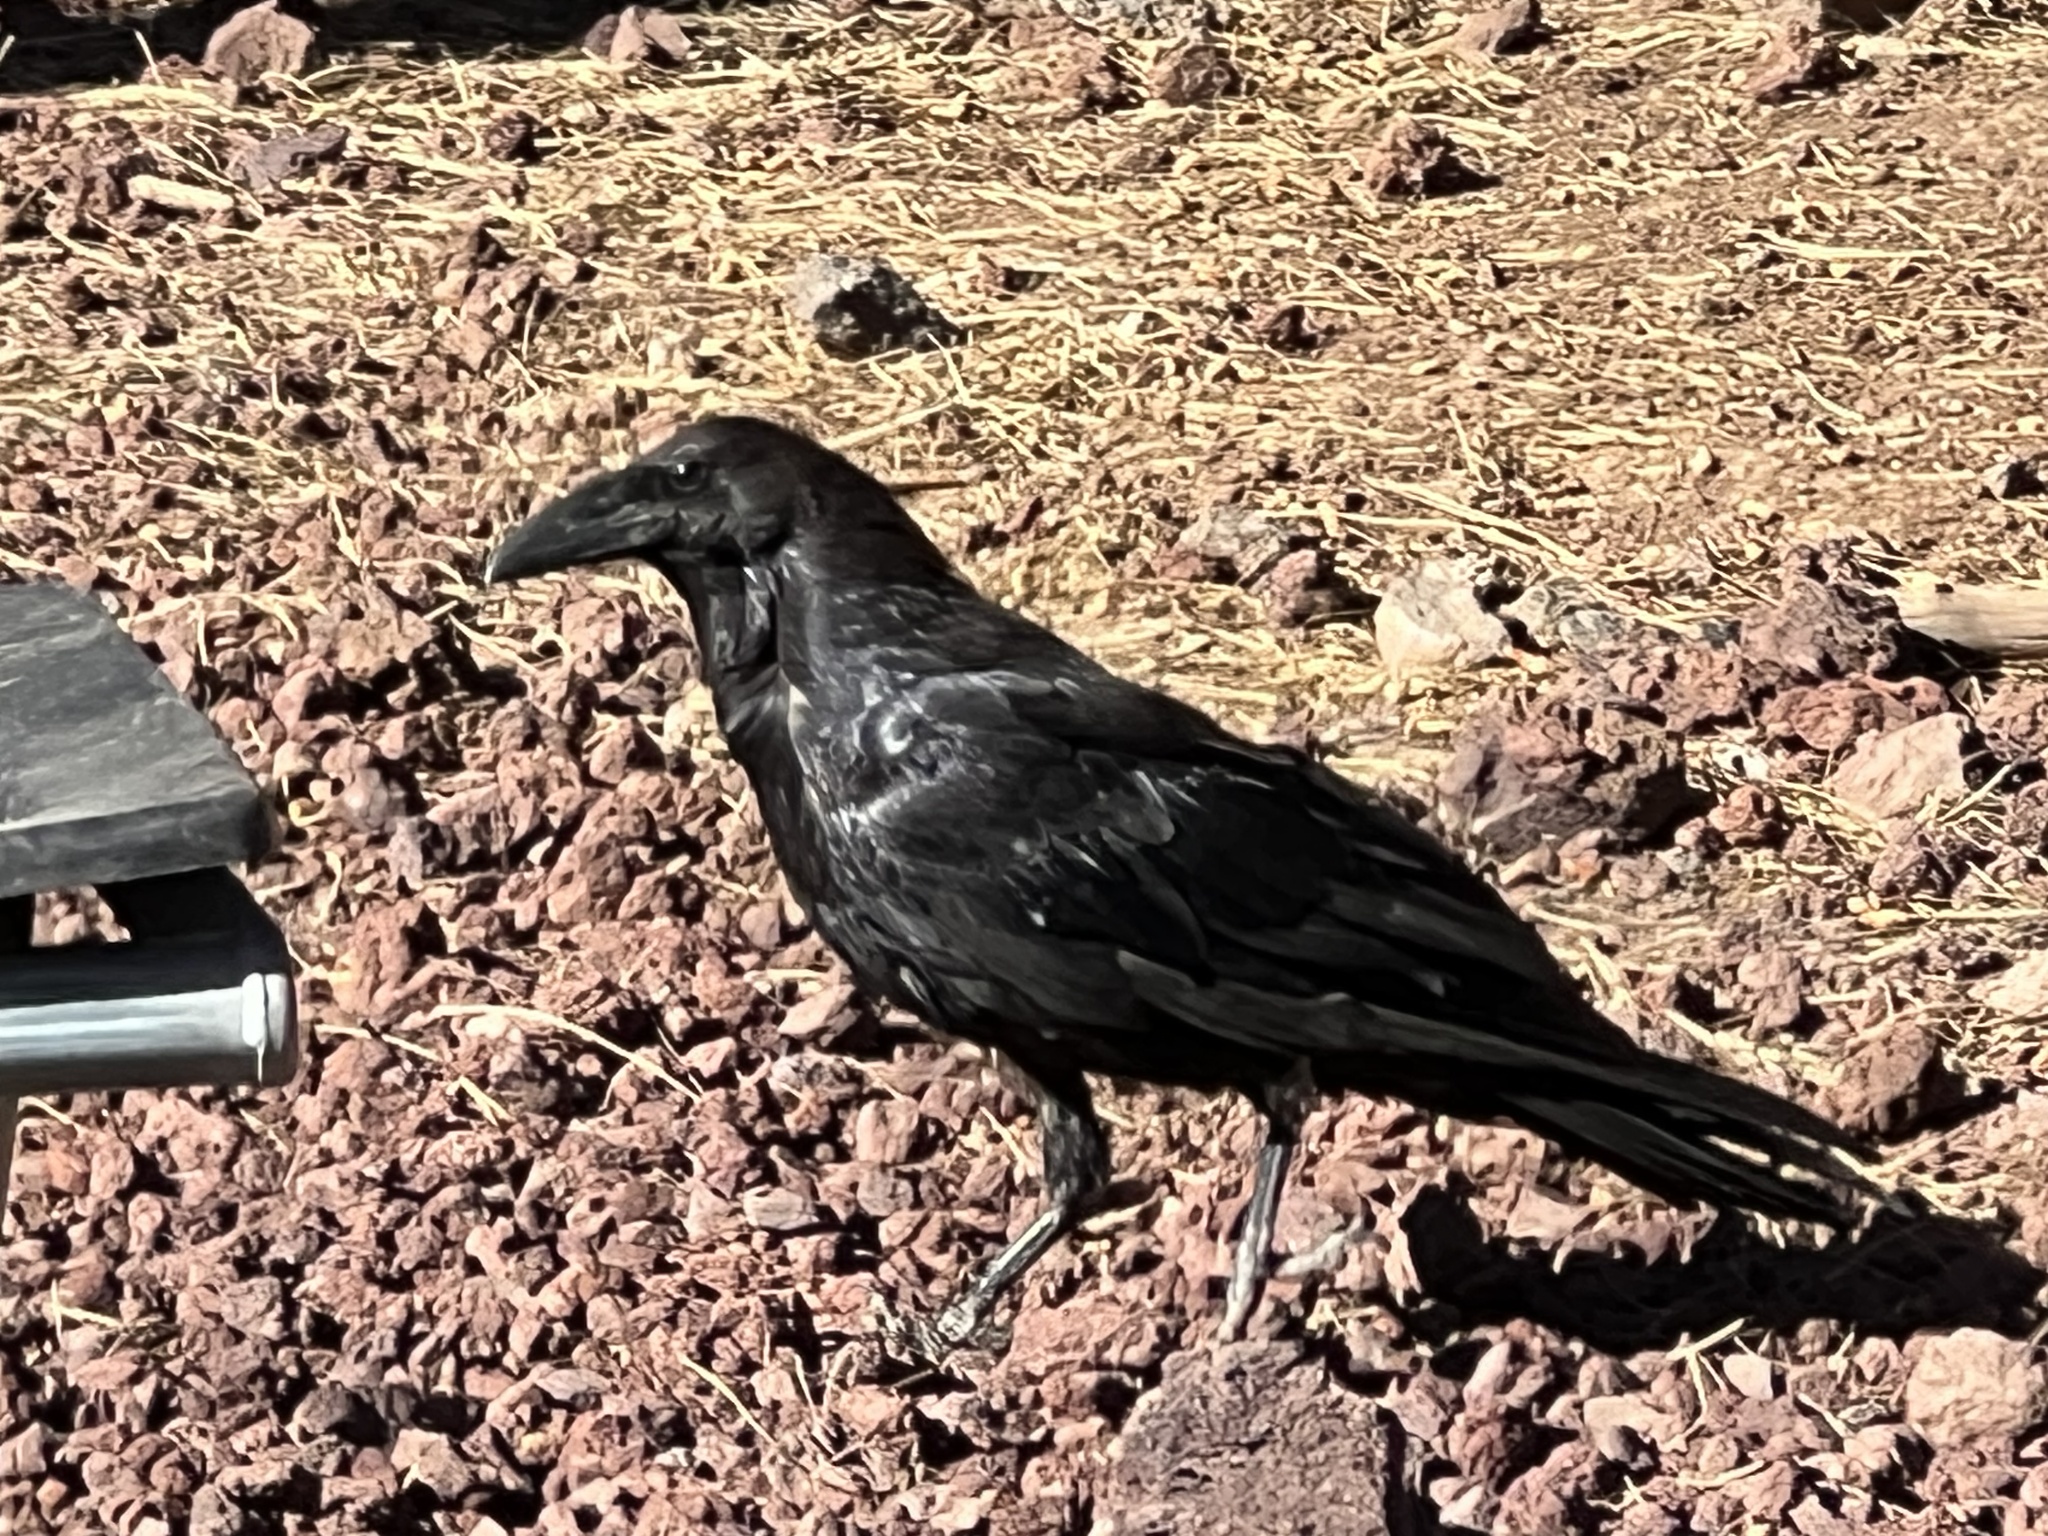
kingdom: Animalia
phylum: Chordata
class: Aves
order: Passeriformes
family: Corvidae
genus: Corvus
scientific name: Corvus corax
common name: Common raven
